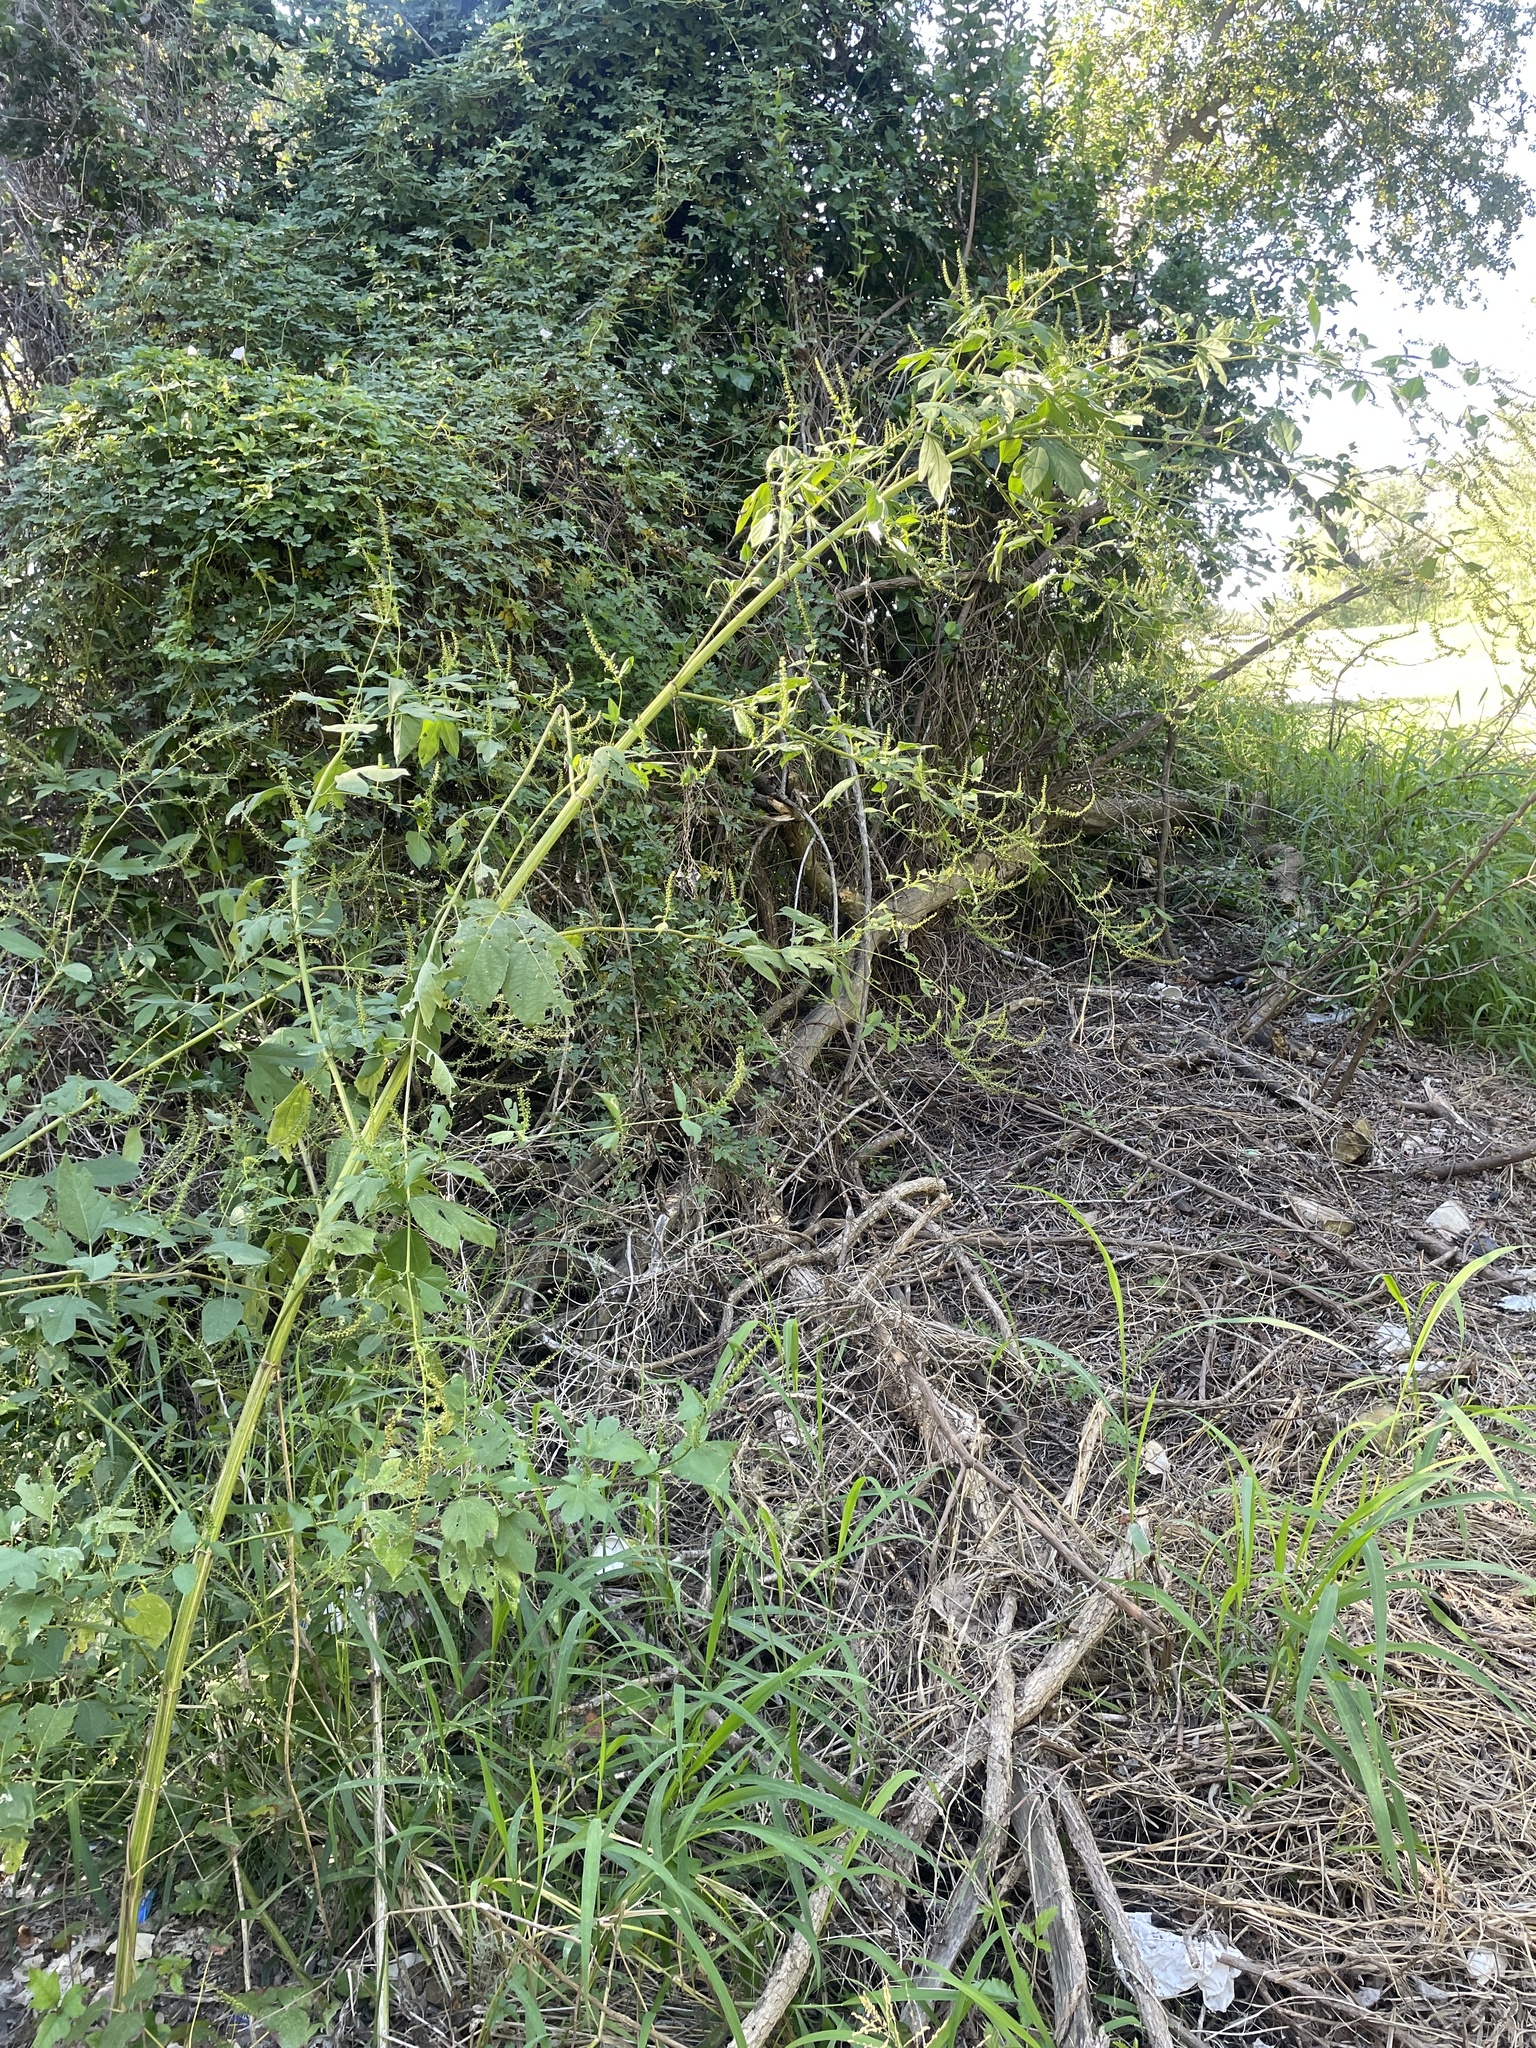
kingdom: Plantae
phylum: Tracheophyta
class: Magnoliopsida
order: Asterales
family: Asteraceae
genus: Ambrosia
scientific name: Ambrosia trifida
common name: Giant ragweed
